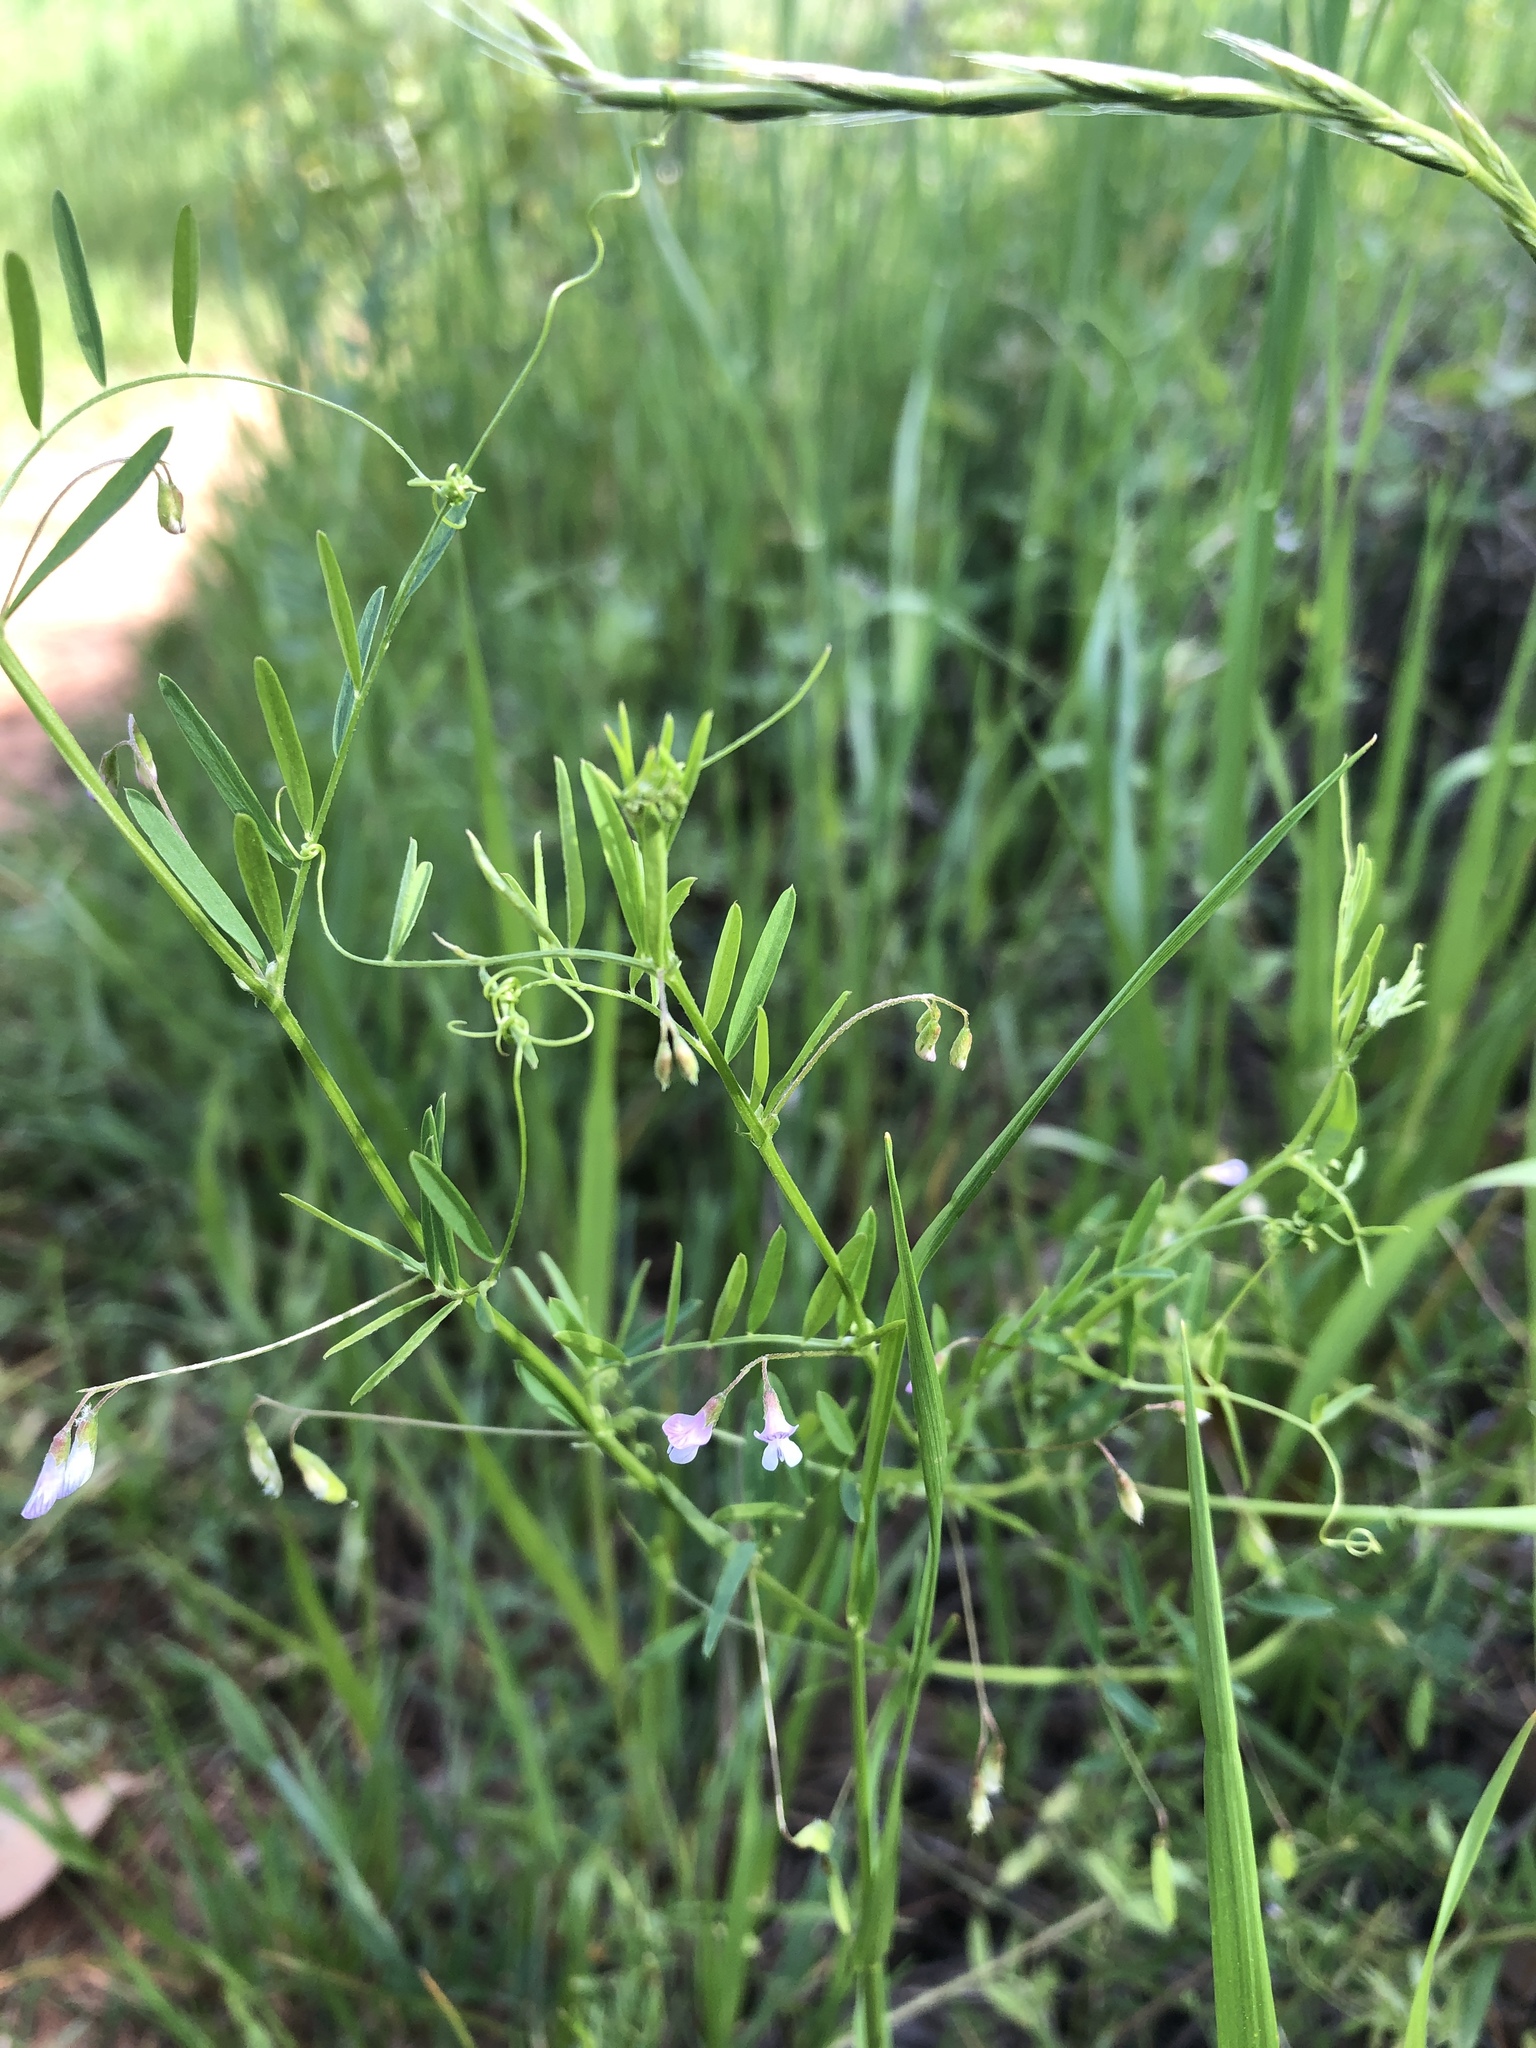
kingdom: Plantae
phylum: Tracheophyta
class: Magnoliopsida
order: Fabales
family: Fabaceae
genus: Vicia
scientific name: Vicia tetrasperma
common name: Smooth tare
